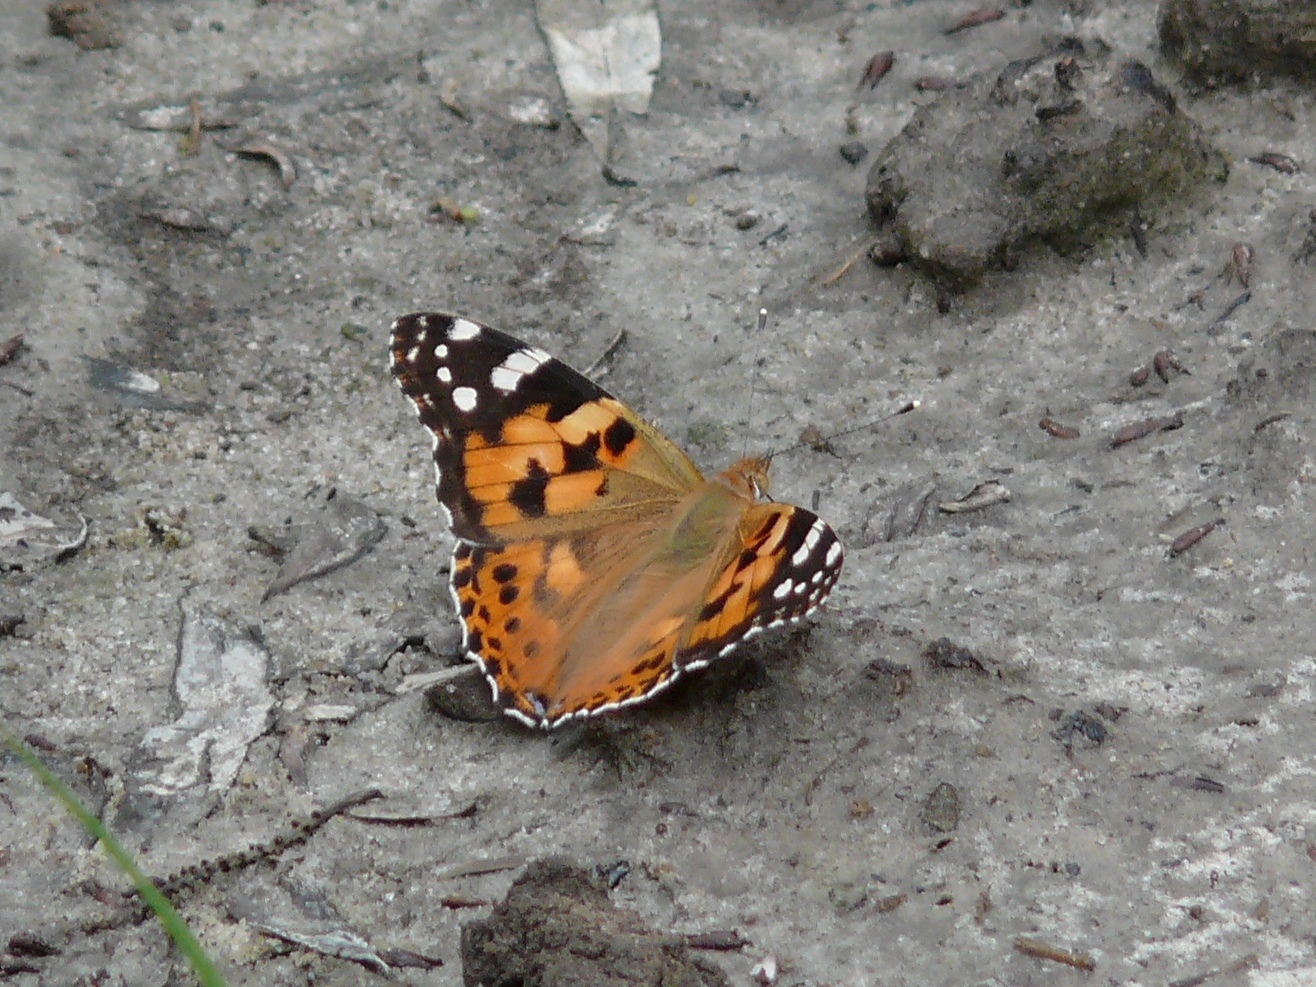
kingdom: Animalia
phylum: Arthropoda
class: Insecta
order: Lepidoptera
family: Nymphalidae
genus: Vanessa
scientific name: Vanessa cardui
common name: Painted lady
